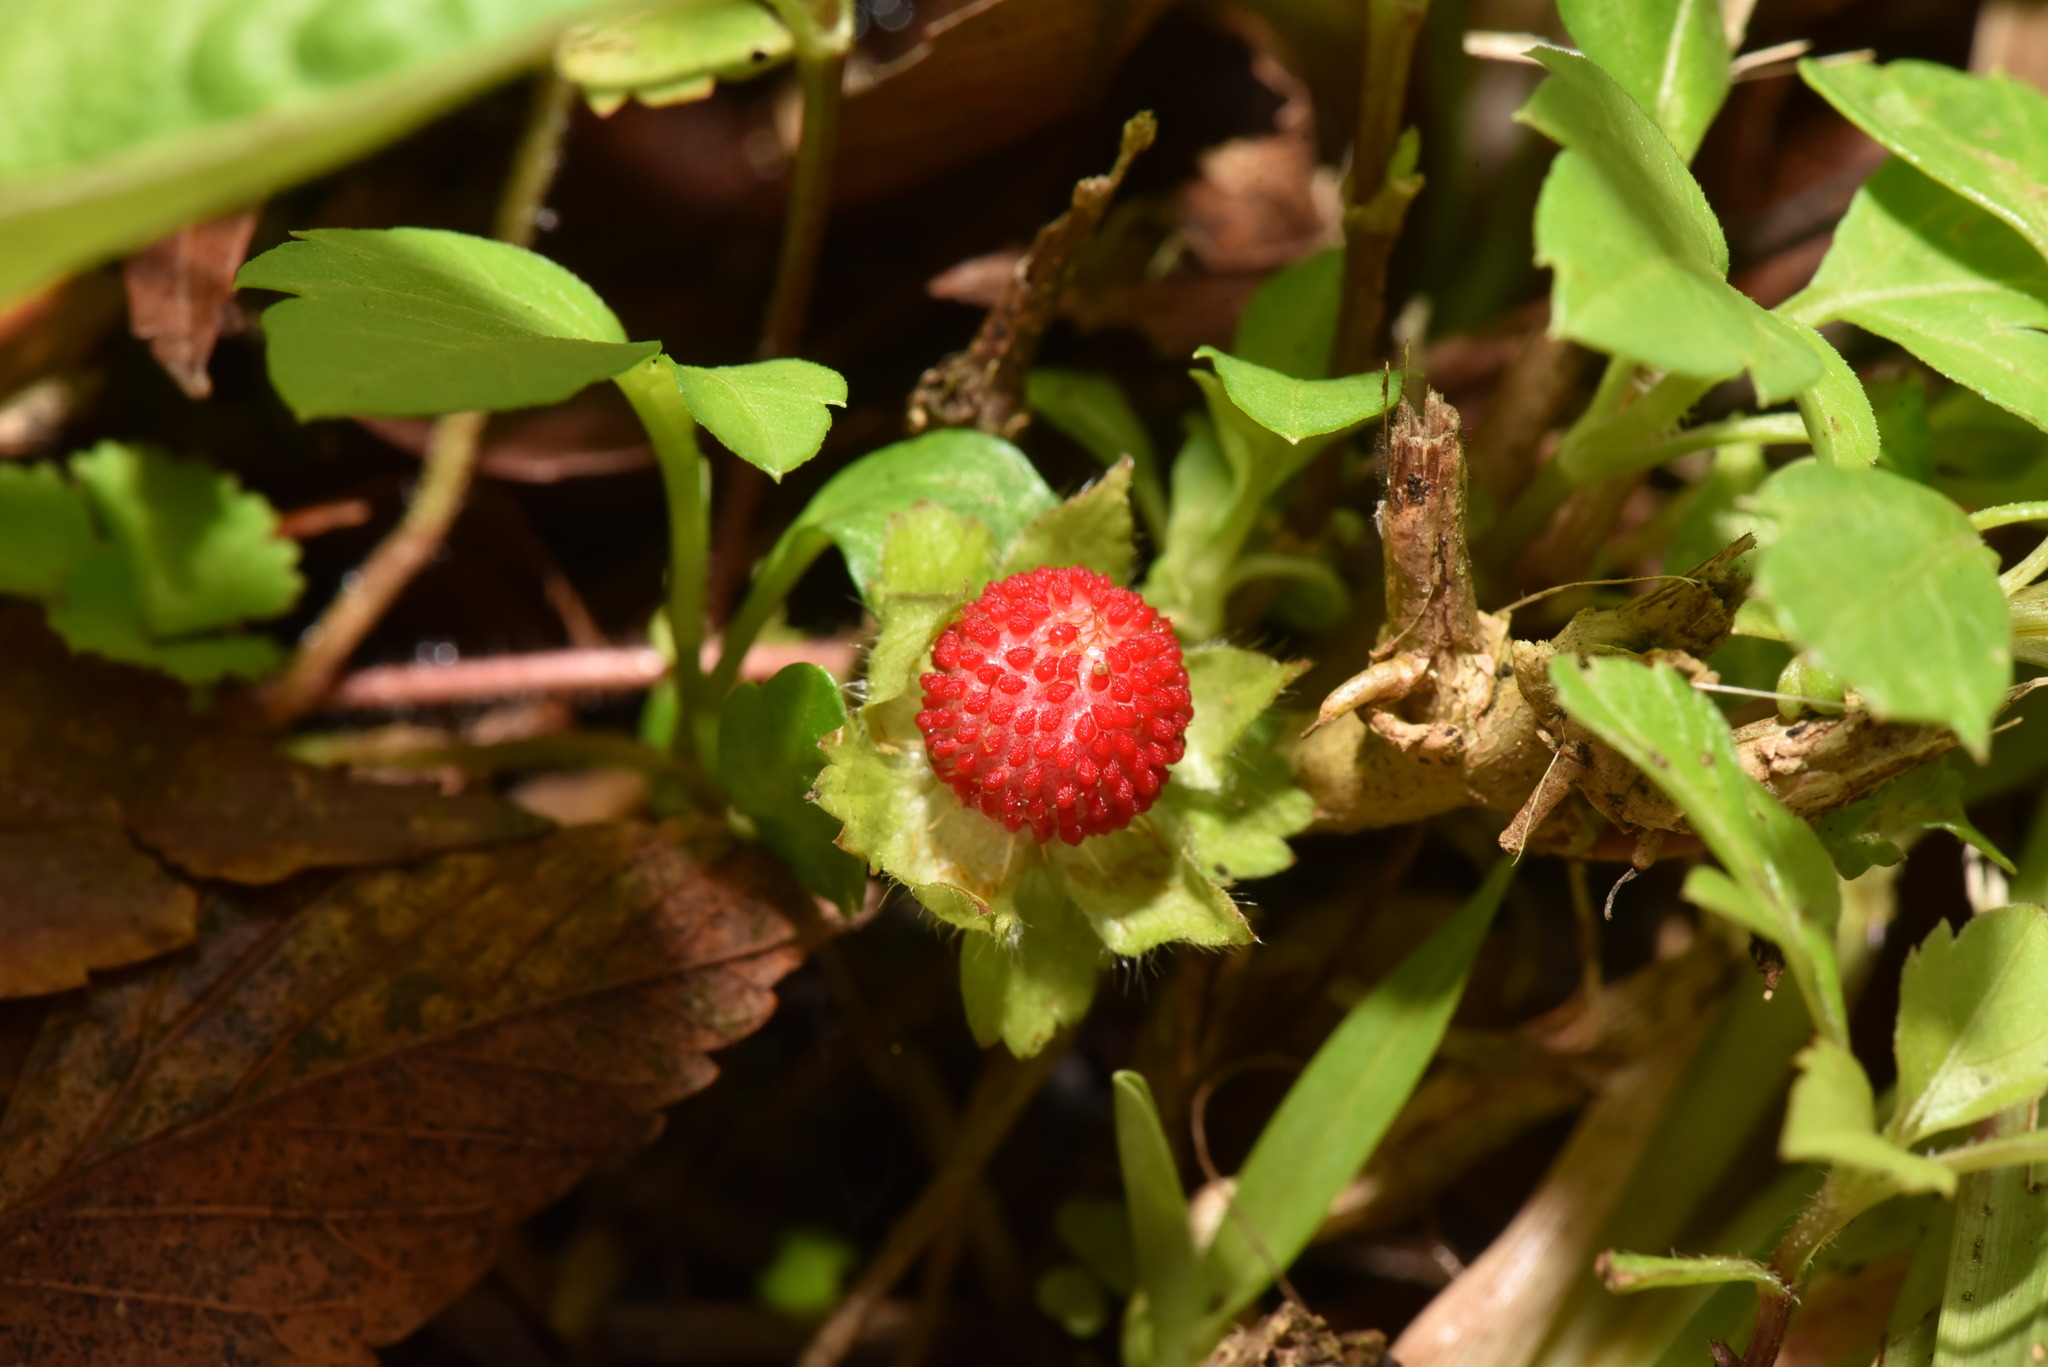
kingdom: Plantae
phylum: Tracheophyta
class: Magnoliopsida
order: Rosales
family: Rosaceae
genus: Potentilla
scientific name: Potentilla wallichiana
